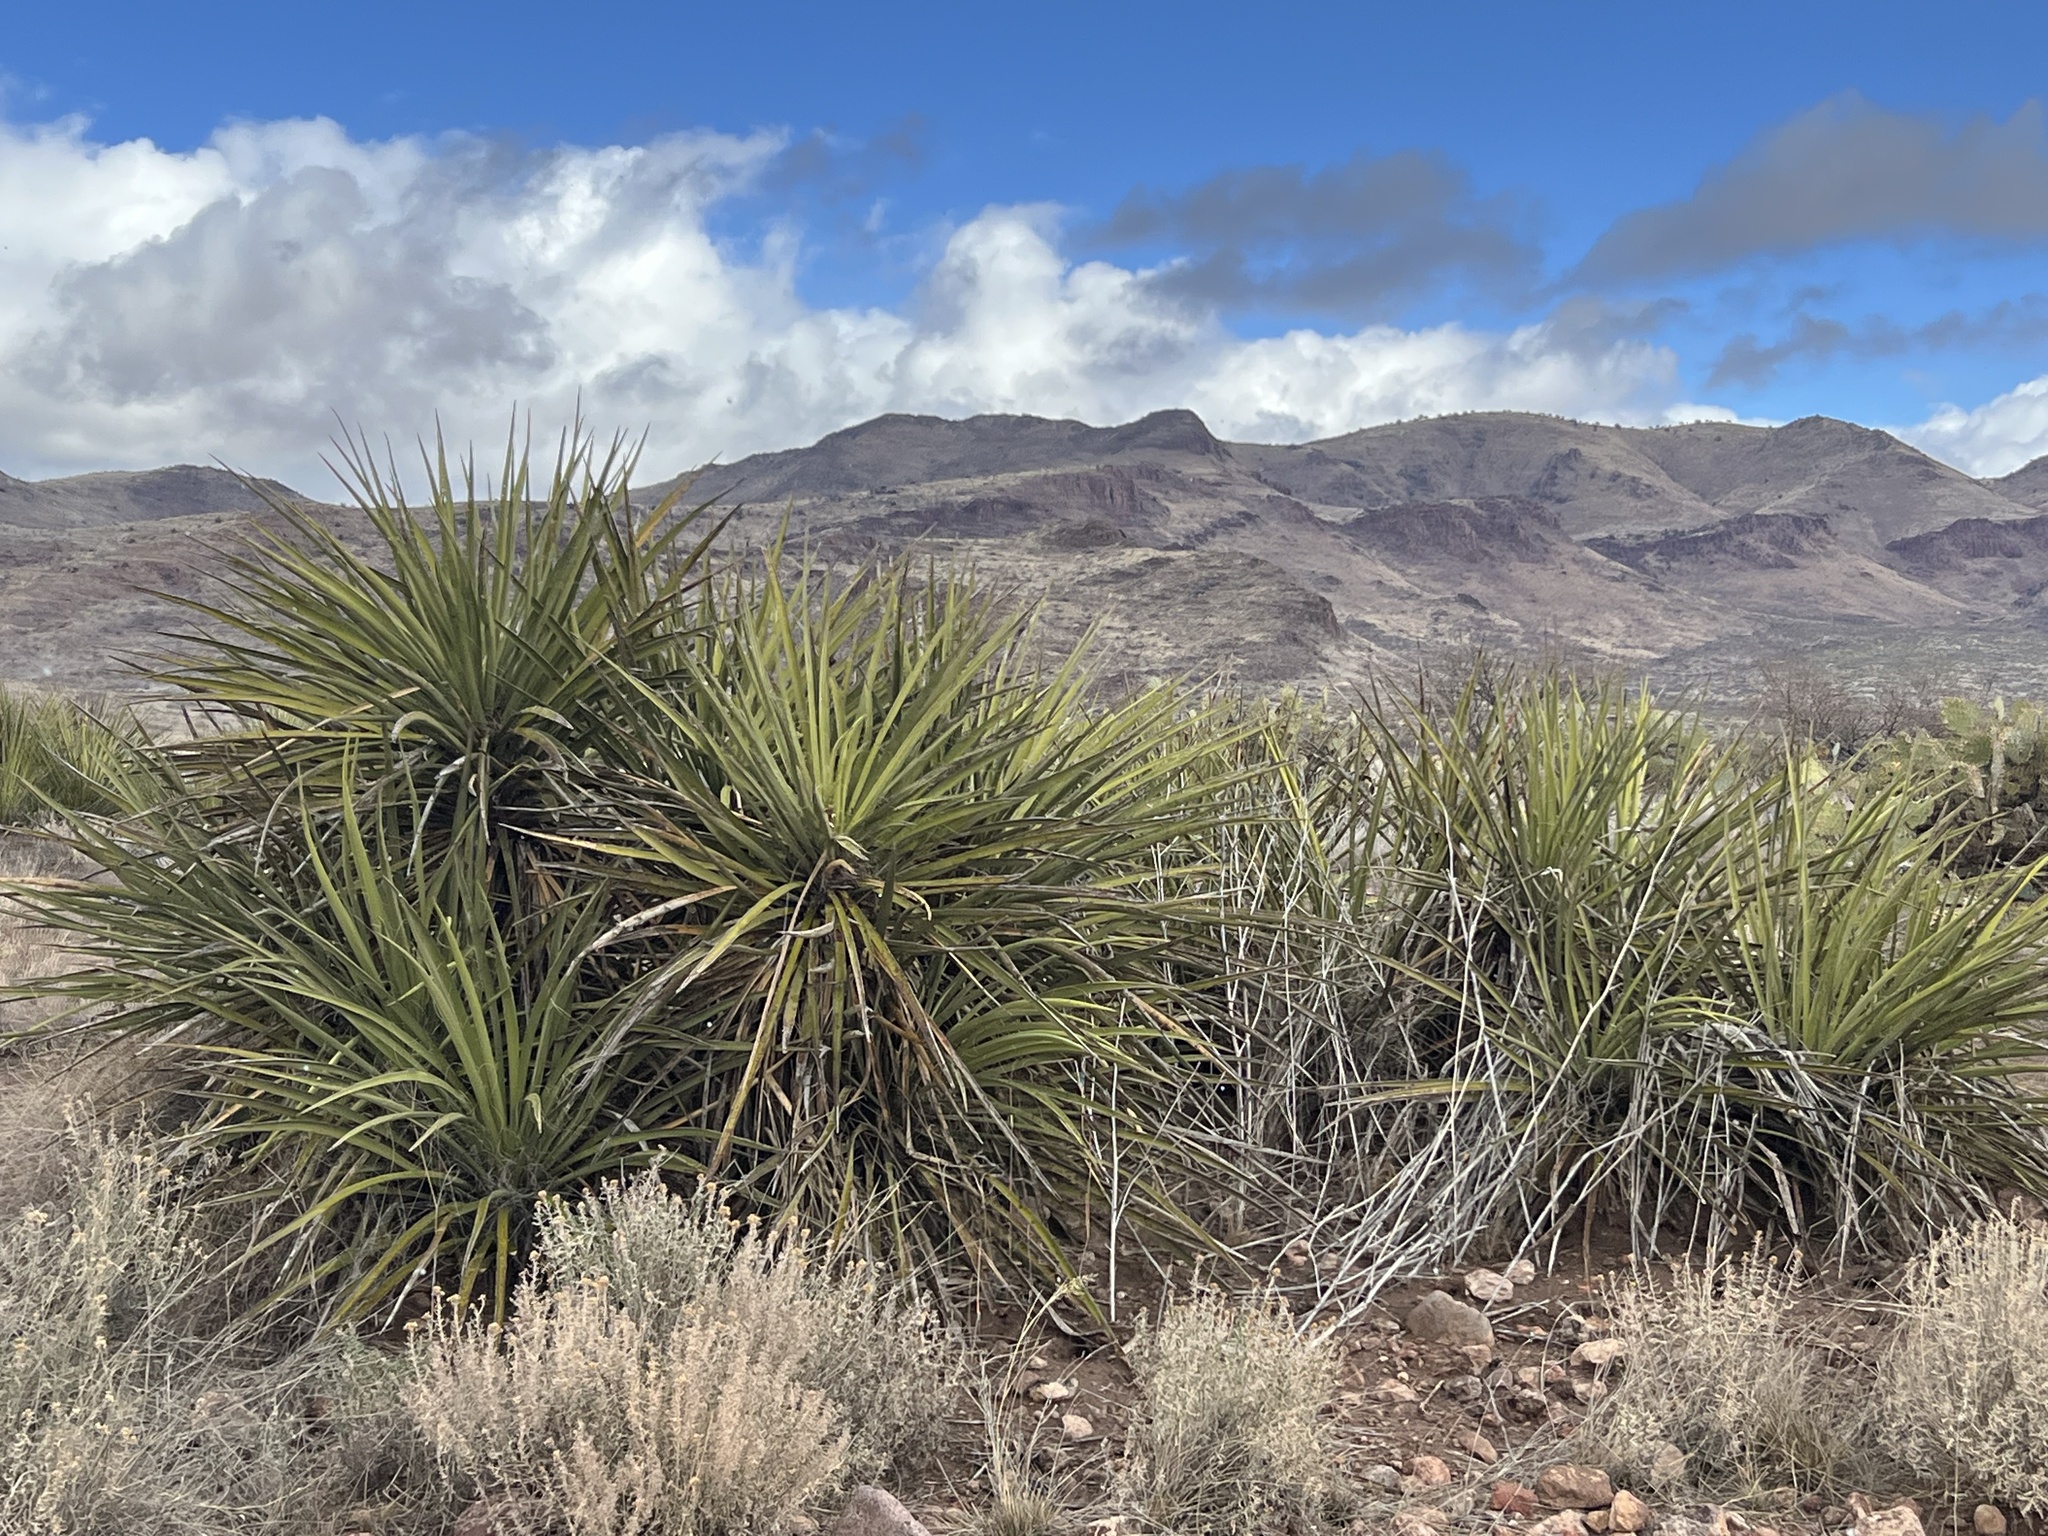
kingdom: Plantae
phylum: Tracheophyta
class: Liliopsida
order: Asparagales
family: Asparagaceae
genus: Yucca
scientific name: Yucca baccata
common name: Banana yucca
